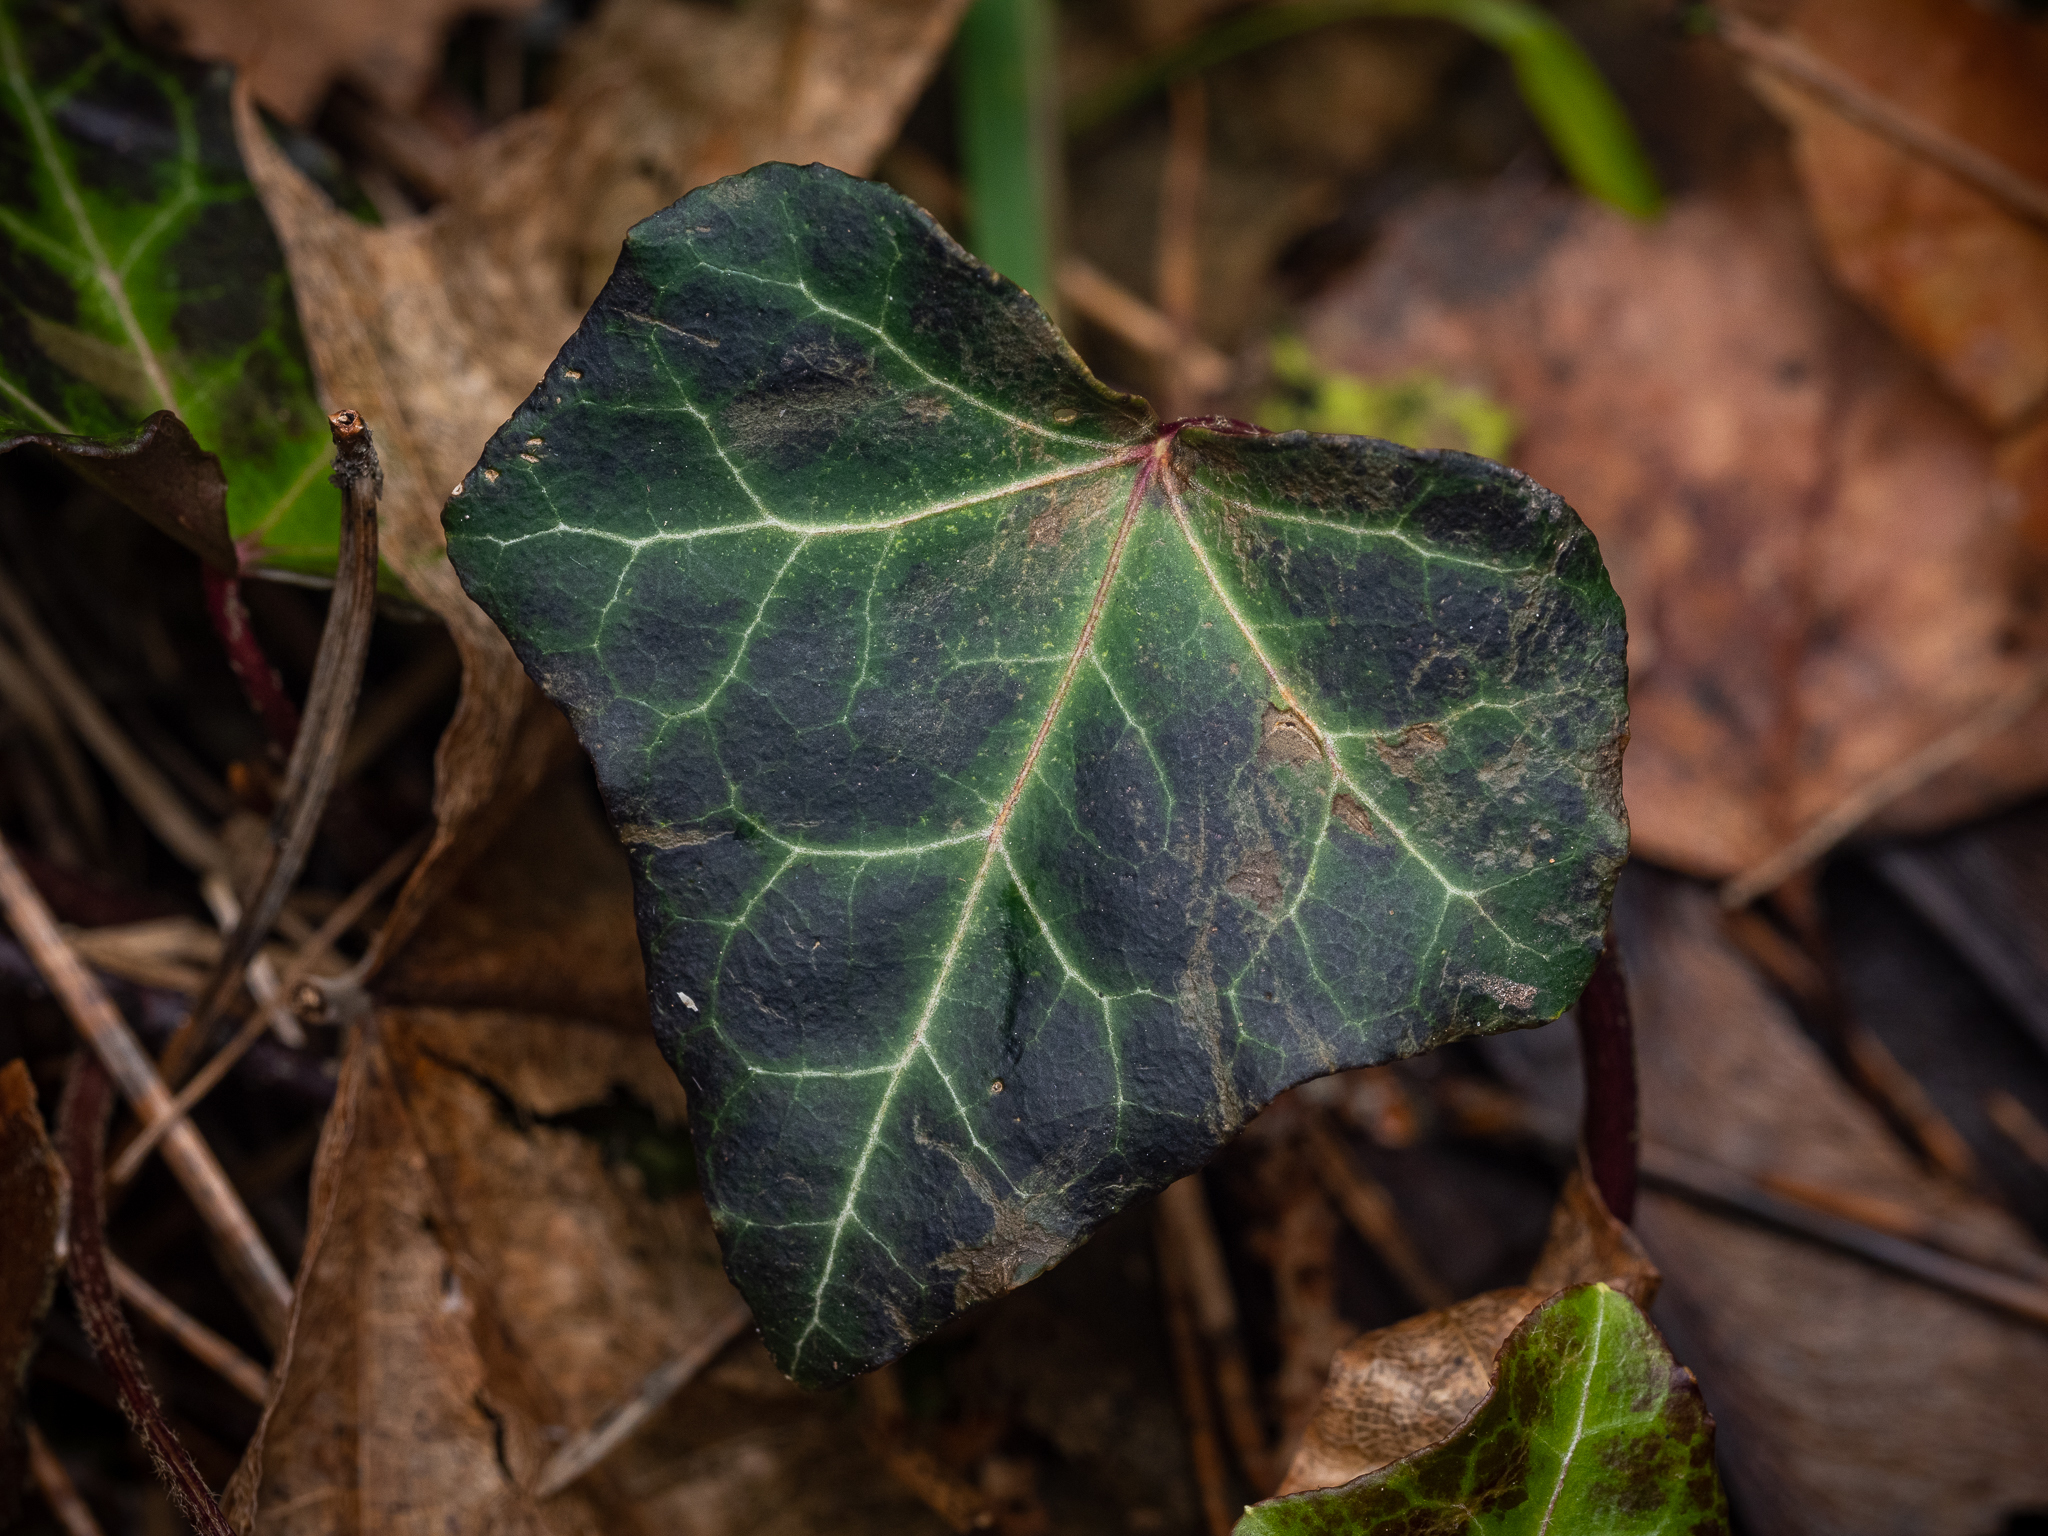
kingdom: Plantae
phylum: Tracheophyta
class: Magnoliopsida
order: Apiales
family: Araliaceae
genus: Hedera
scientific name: Hedera helix
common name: Ivy
